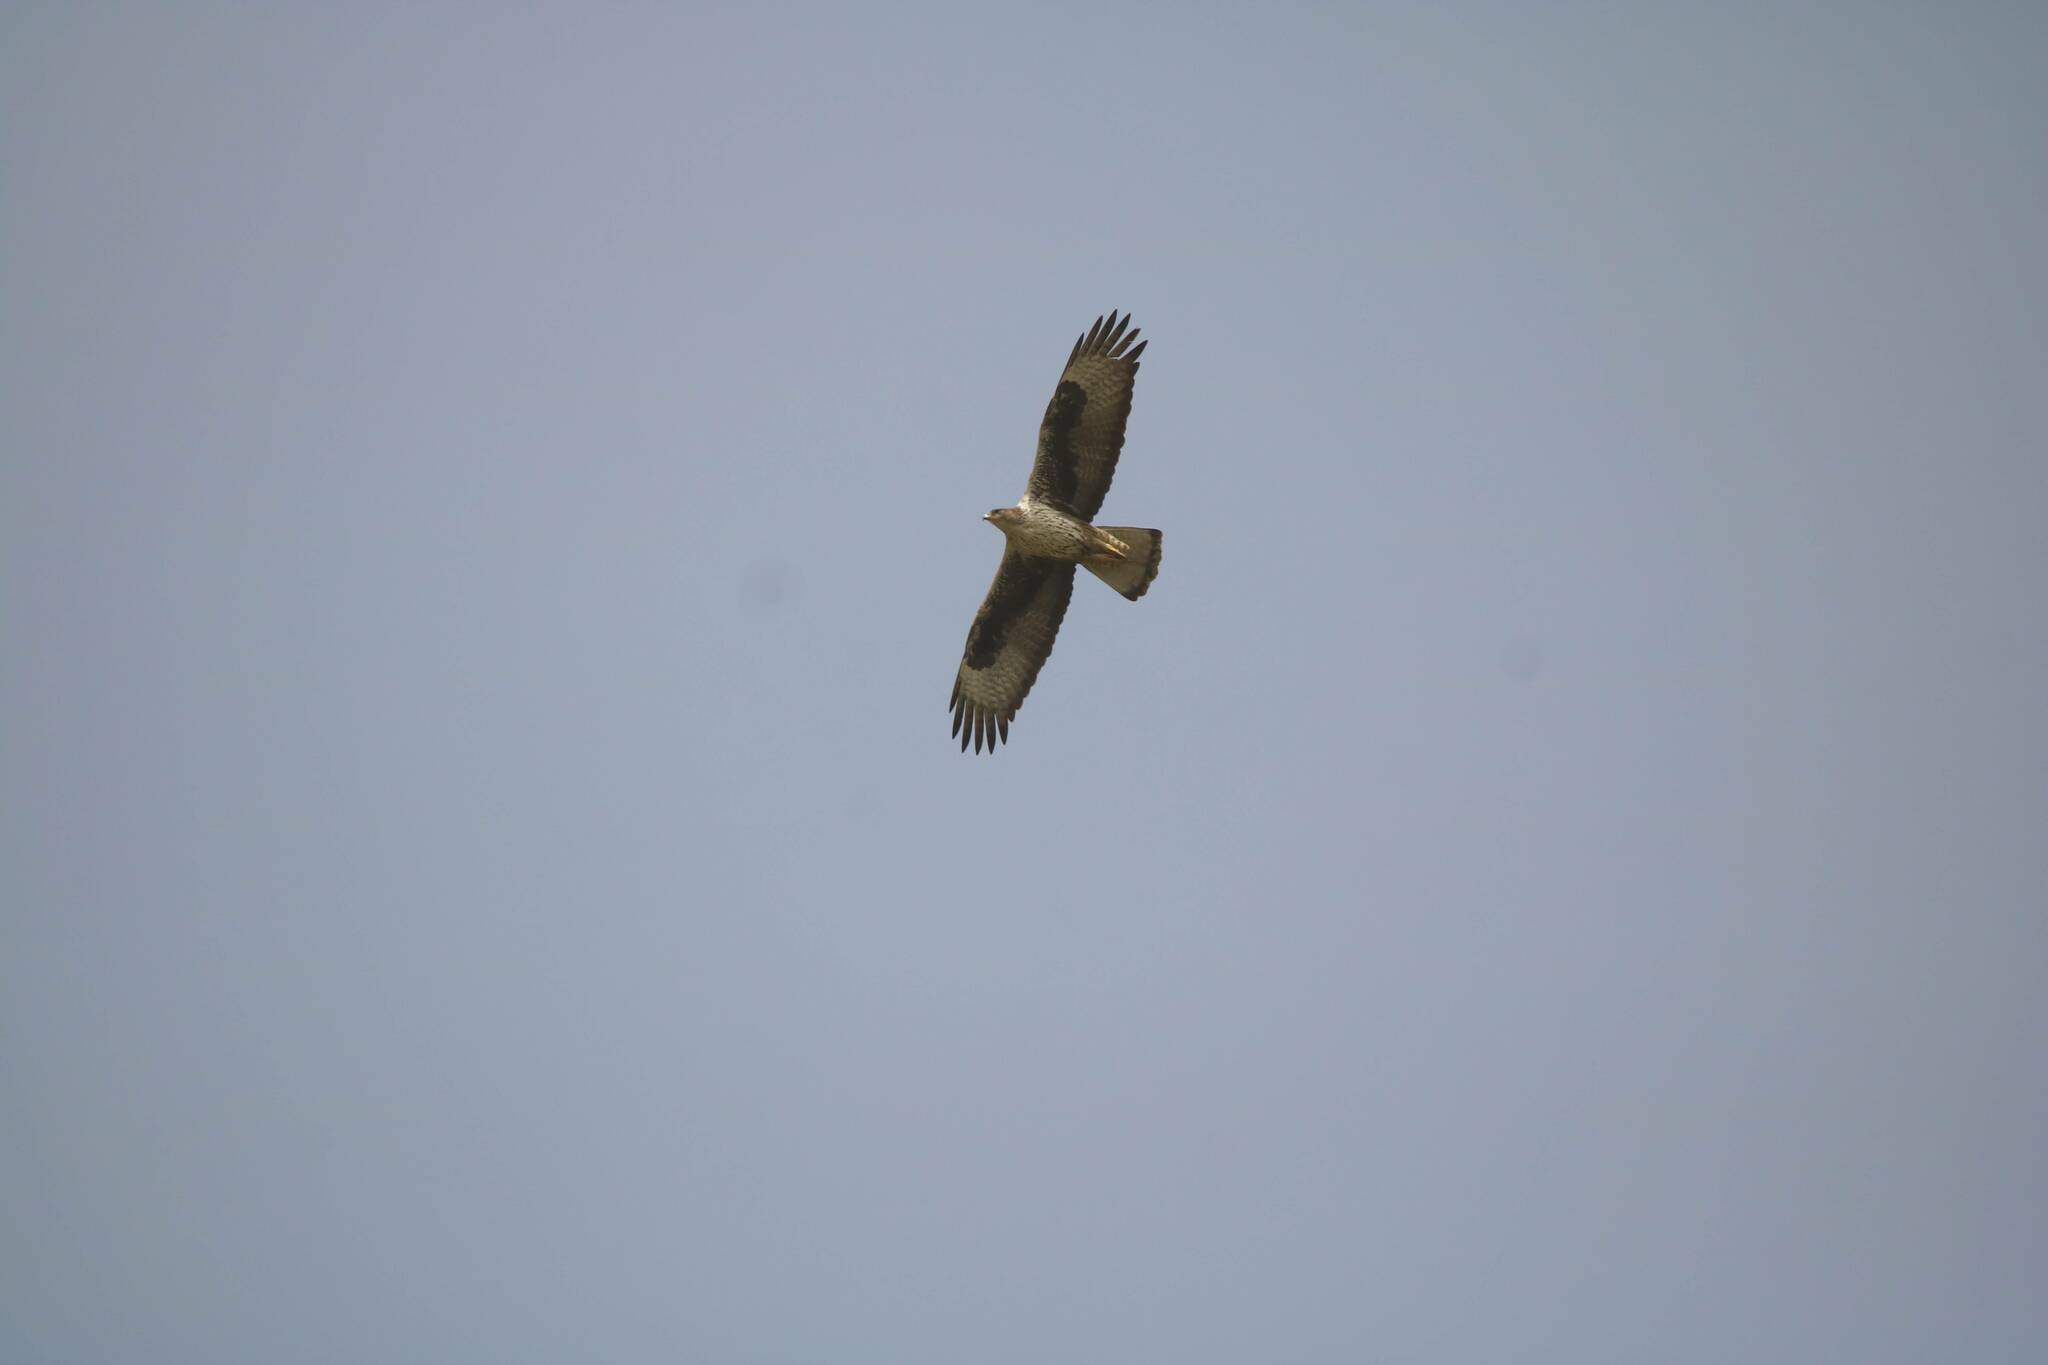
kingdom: Animalia
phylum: Chordata
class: Aves
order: Accipitriformes
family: Accipitridae
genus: Aquila
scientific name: Aquila fasciata
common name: Bonelli's eagle
